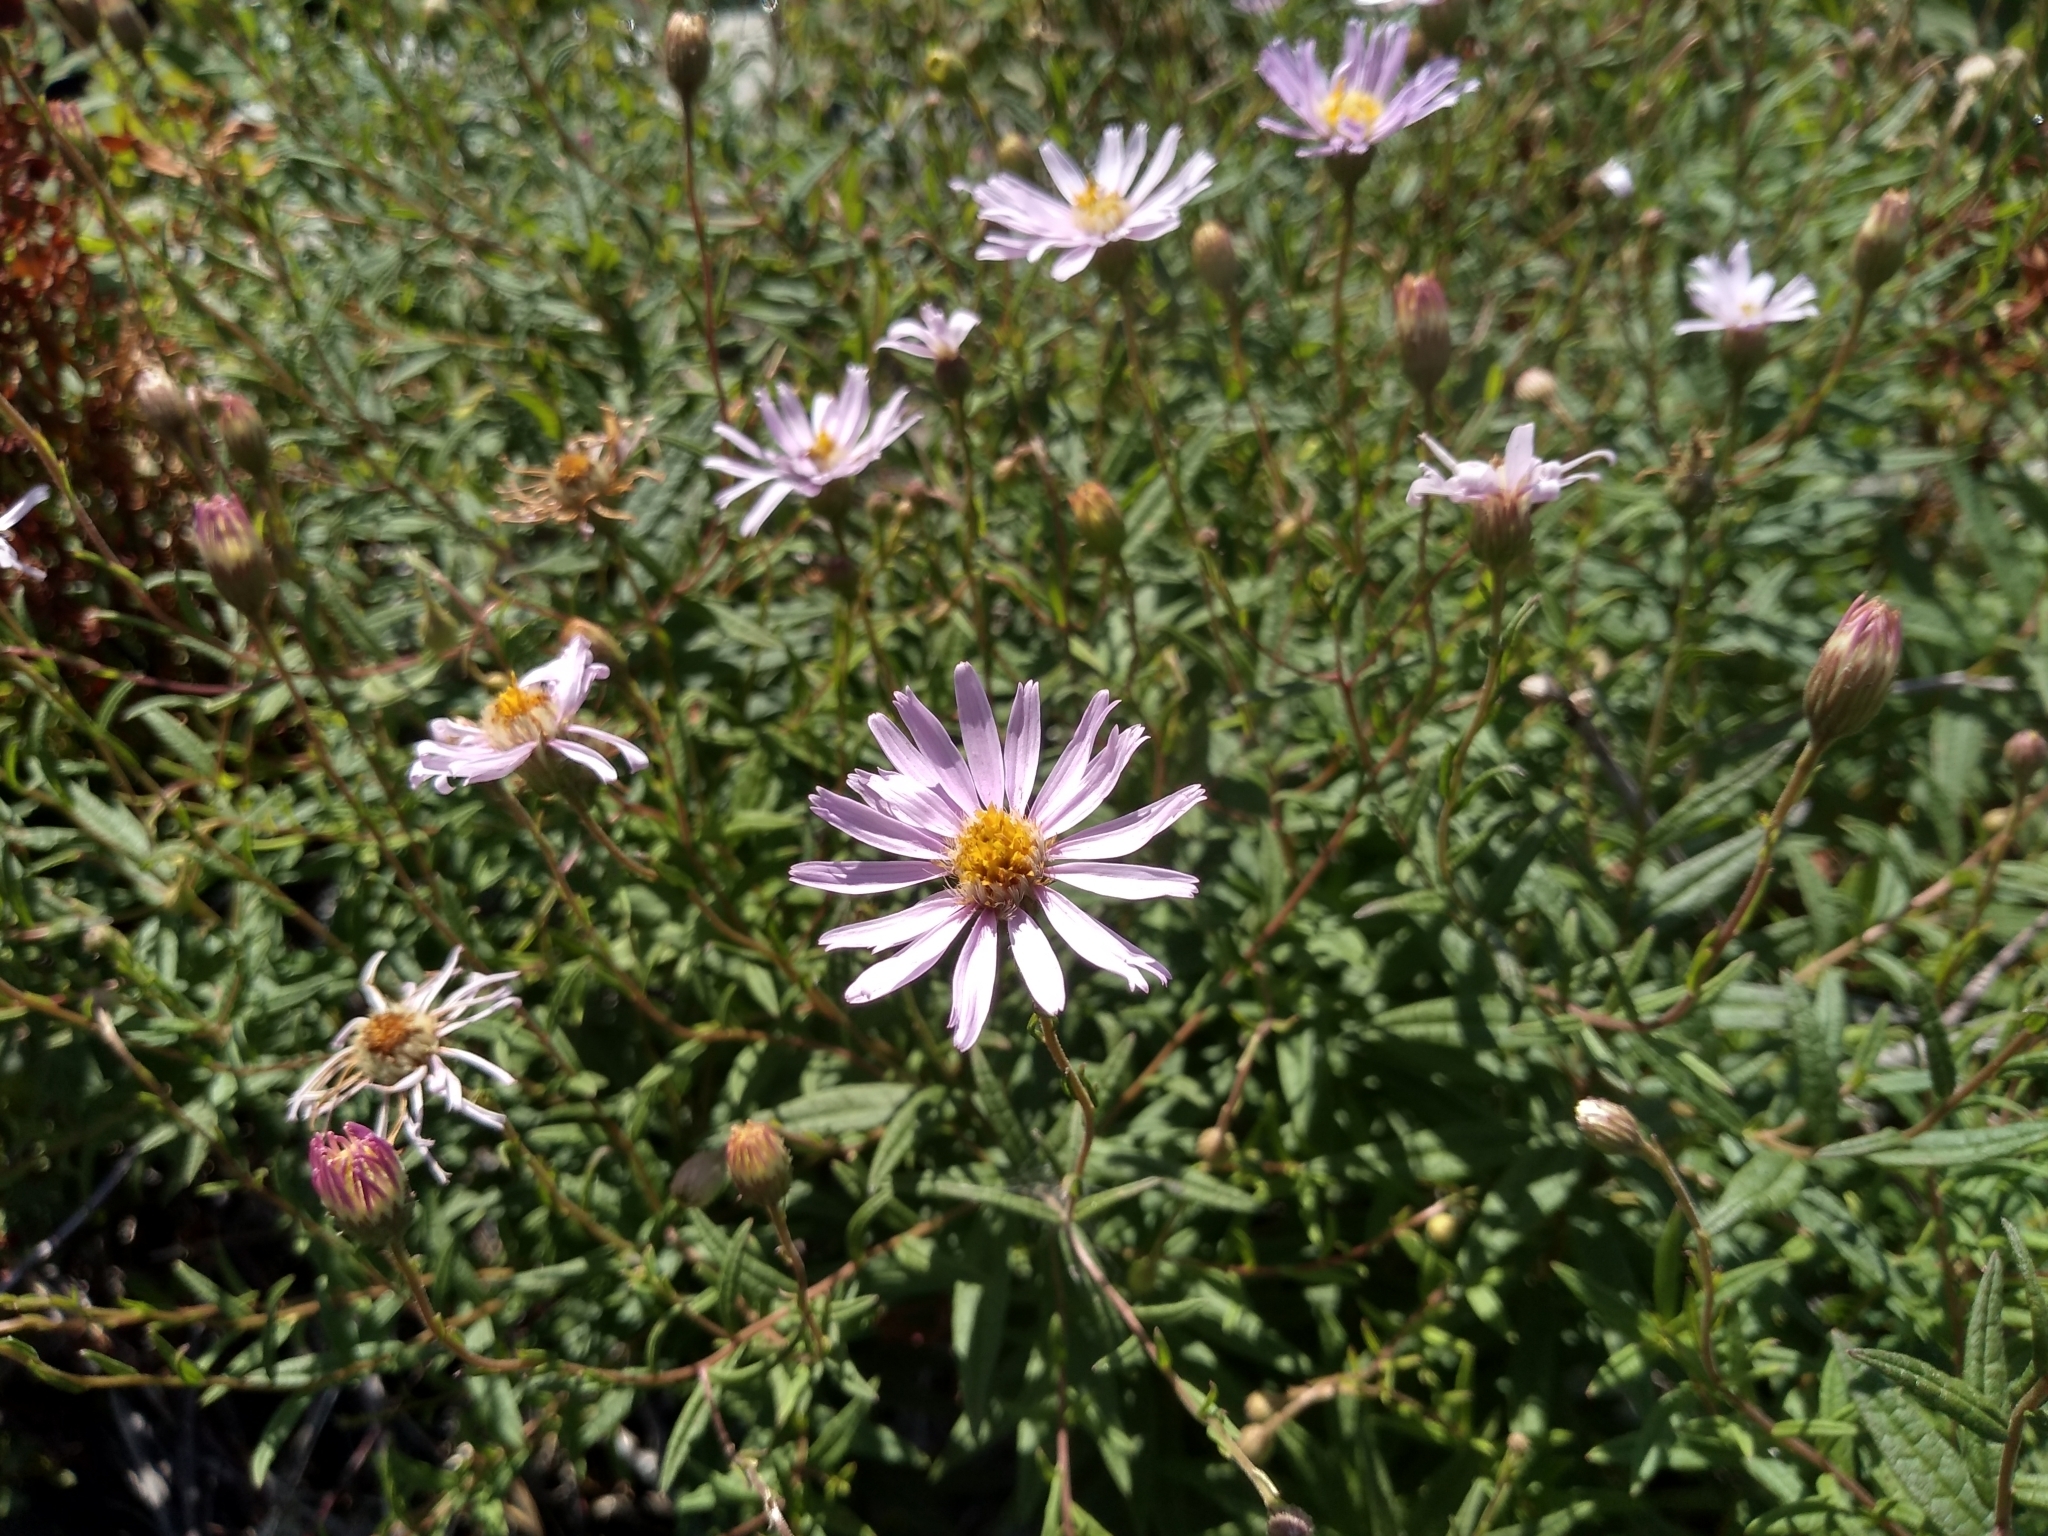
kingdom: Plantae
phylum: Tracheophyta
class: Magnoliopsida
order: Asterales
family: Asteraceae
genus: Oclemena
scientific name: Oclemena blakei
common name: Blake's aster
